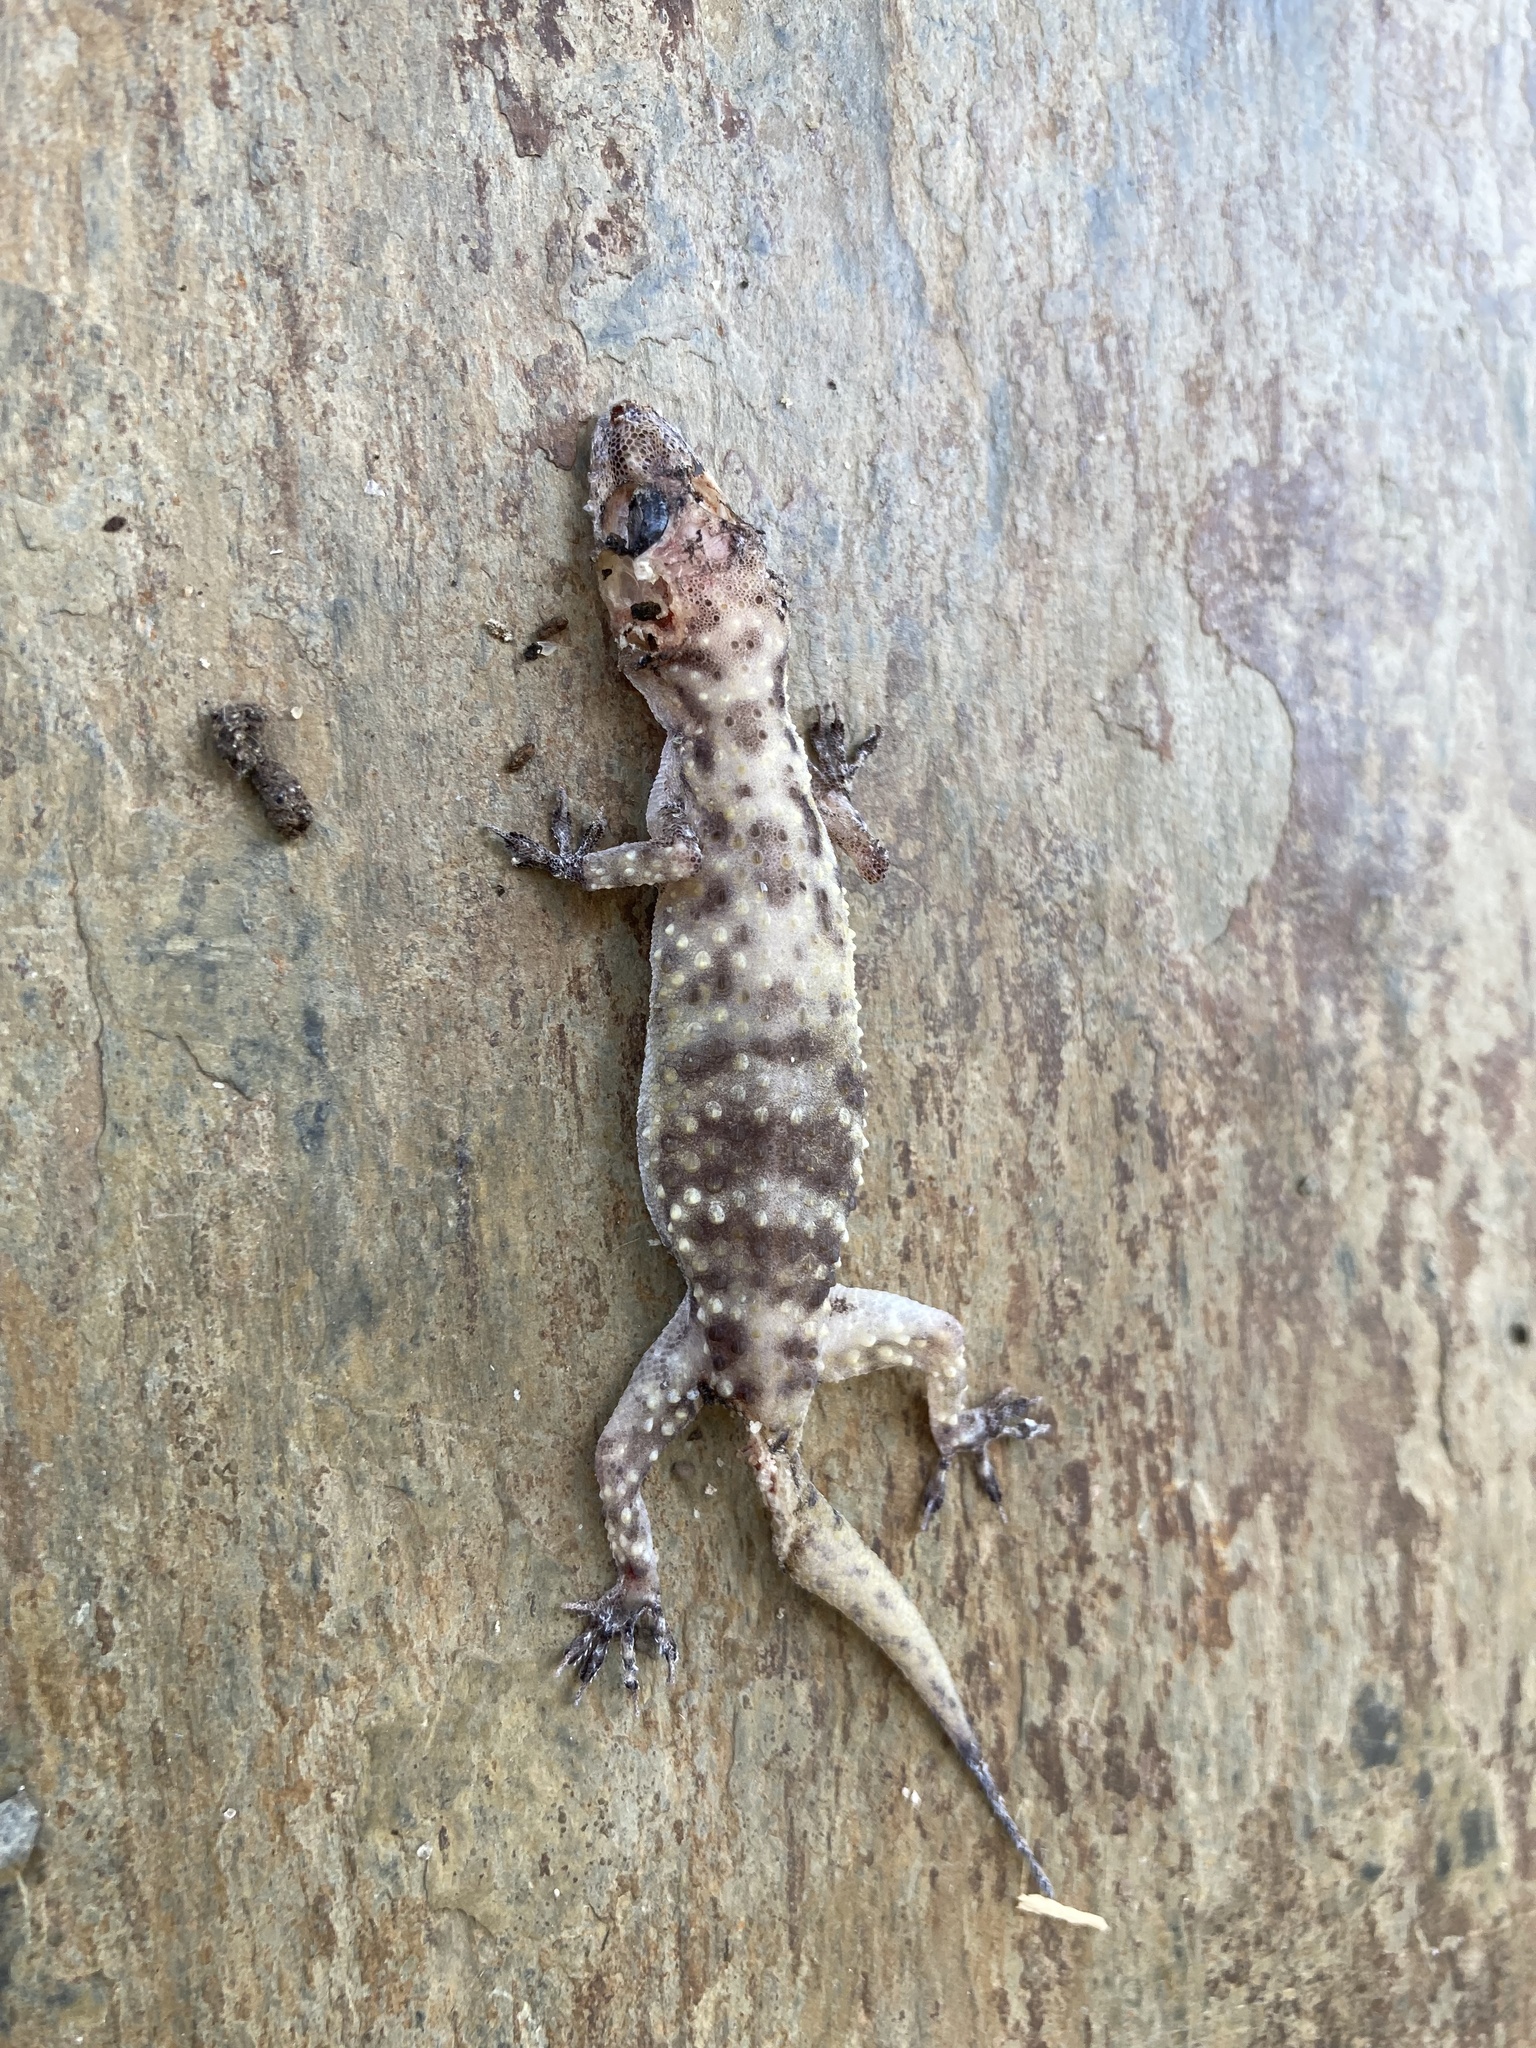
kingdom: Animalia
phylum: Chordata
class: Squamata
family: Gekkonidae
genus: Hemidactylus
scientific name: Hemidactylus turcicus
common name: Turkish gecko
